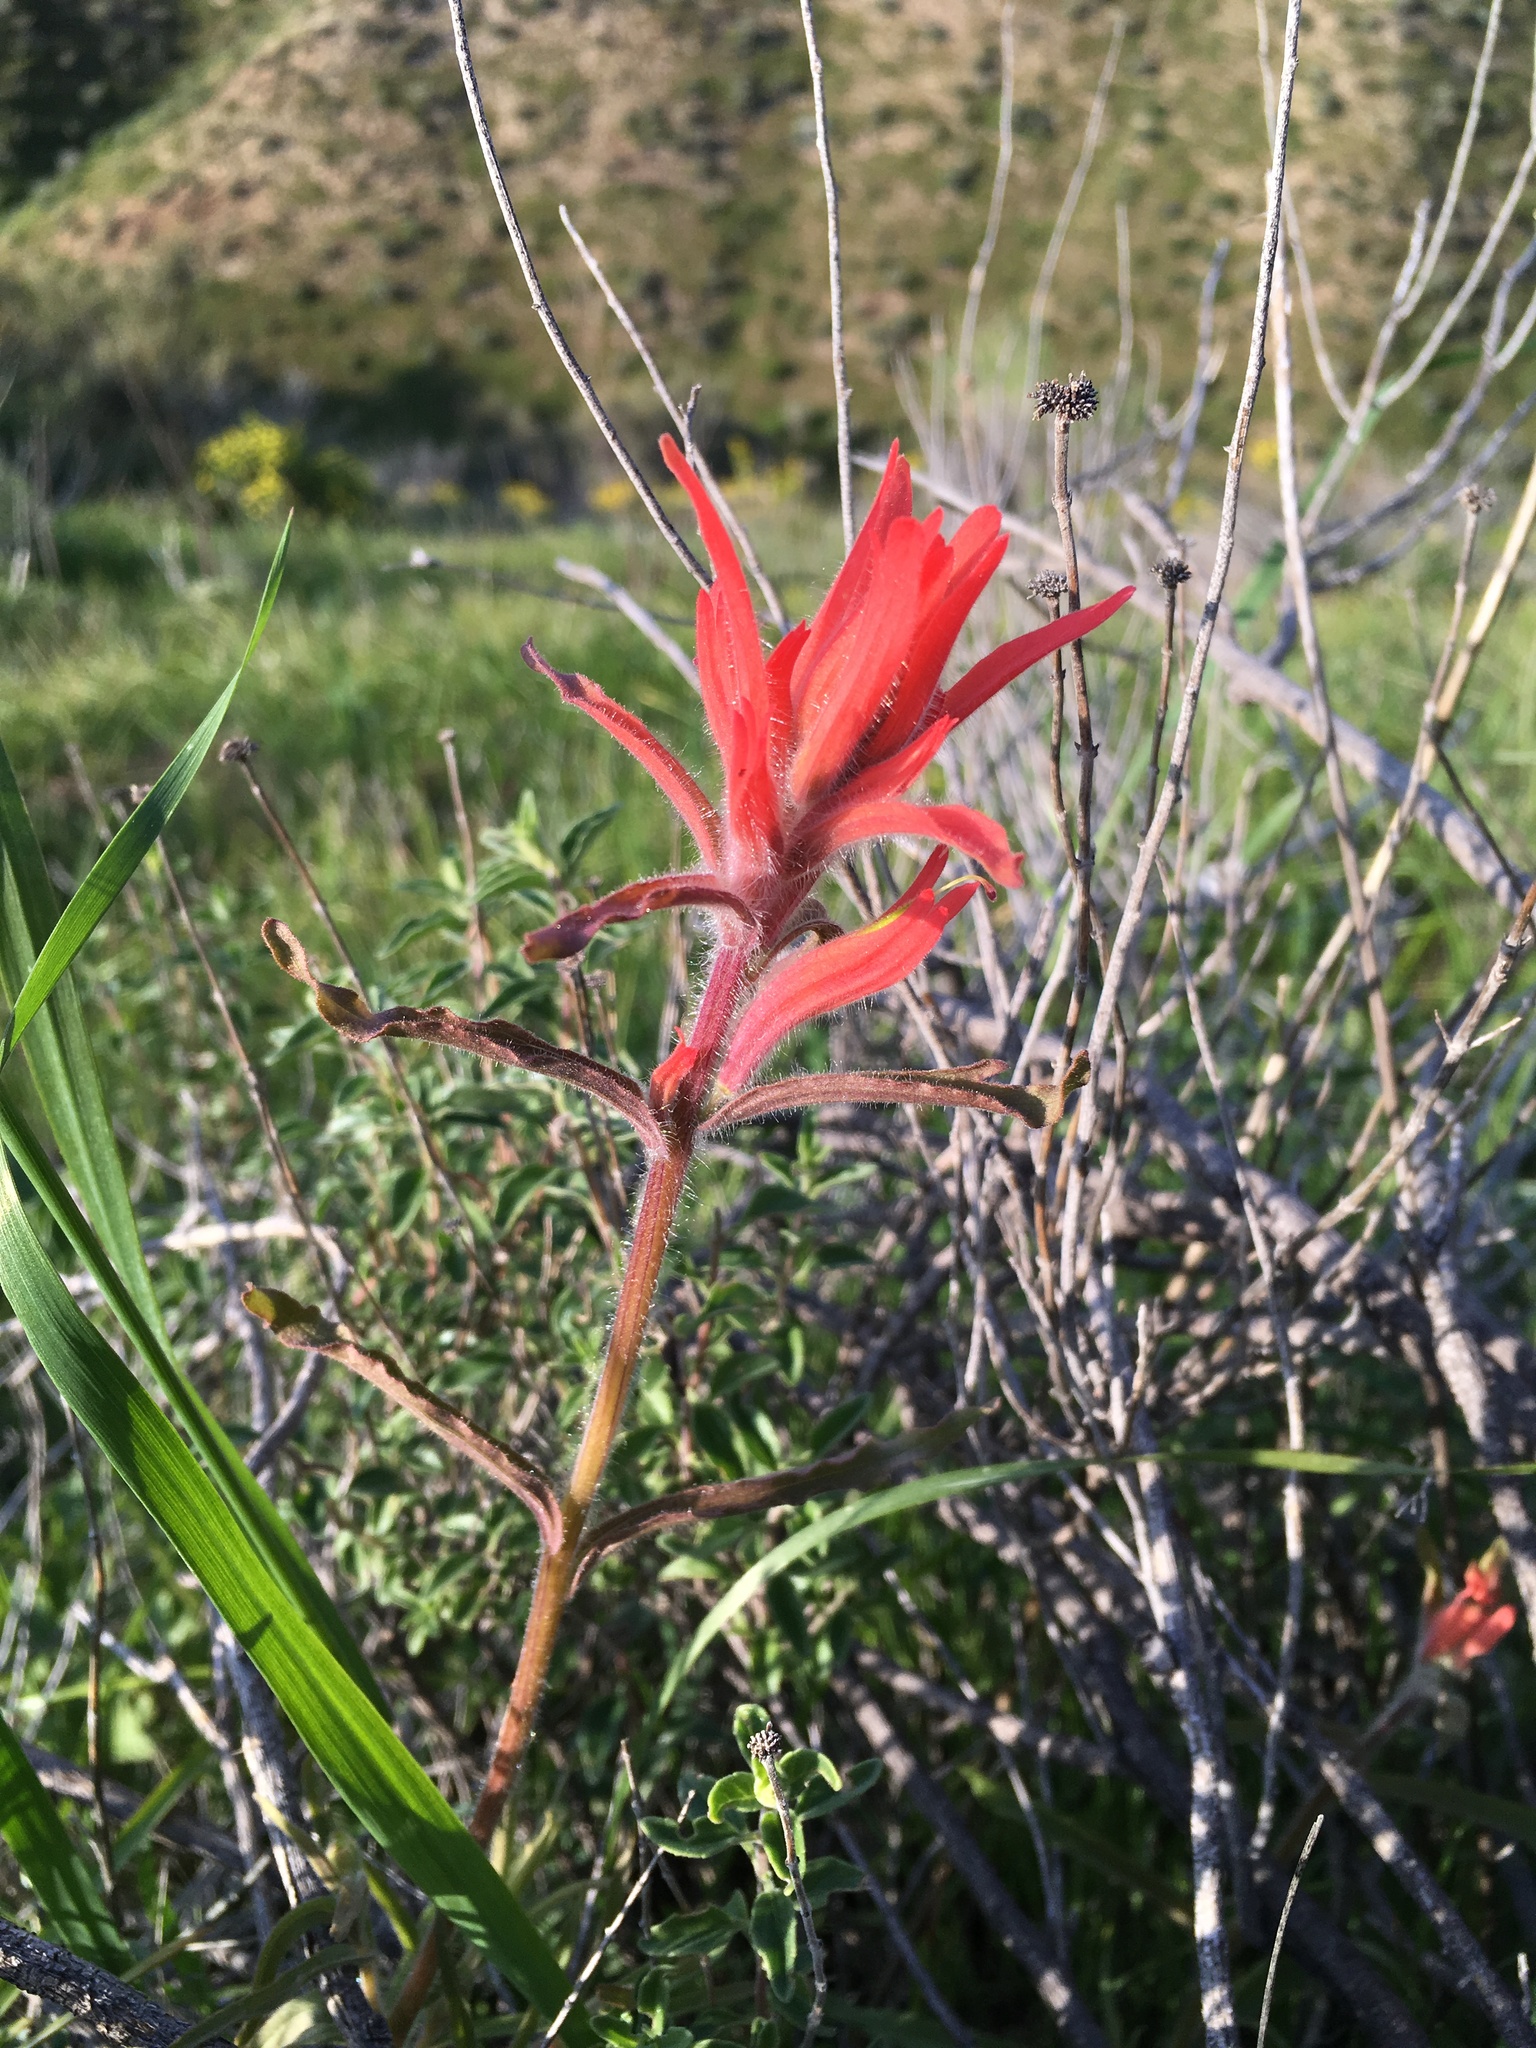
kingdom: Plantae
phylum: Tracheophyta
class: Magnoliopsida
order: Lamiales
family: Orobanchaceae
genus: Castilleja
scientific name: Castilleja subinclusa
